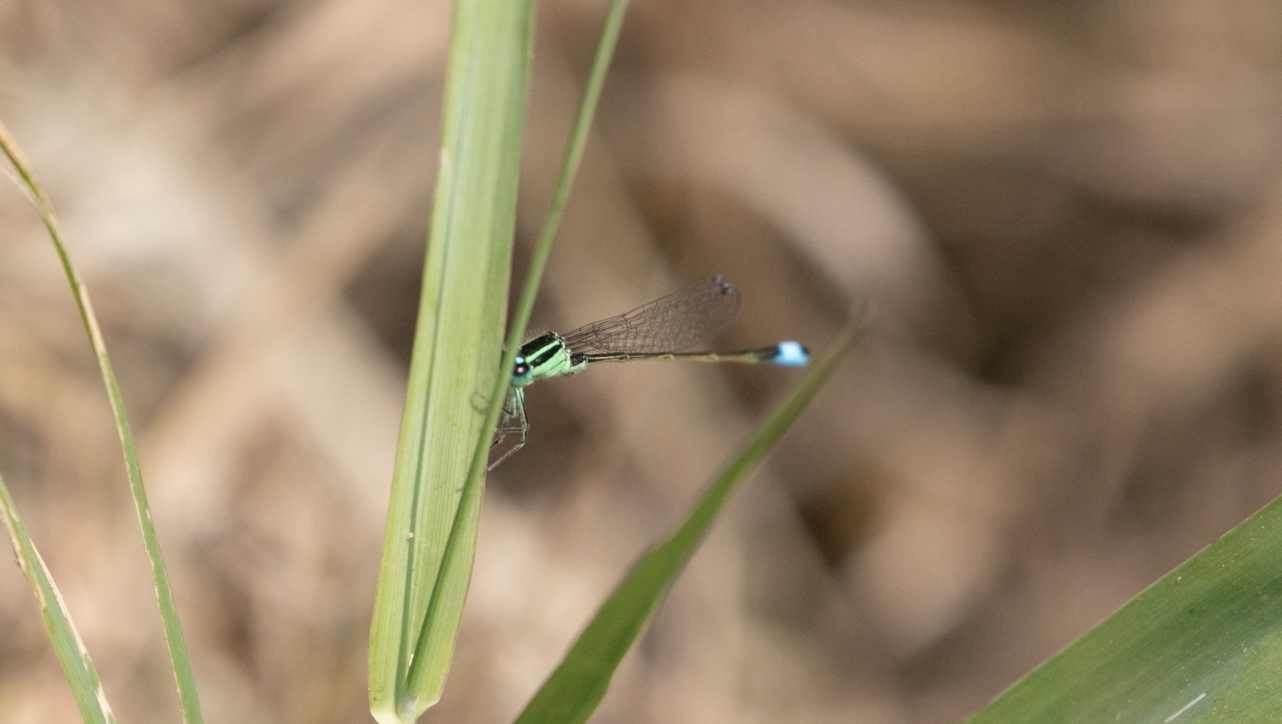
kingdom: Animalia
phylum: Arthropoda
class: Insecta
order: Odonata
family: Coenagrionidae
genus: Ischnura
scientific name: Ischnura elegans
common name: Blue-tailed damselfly
